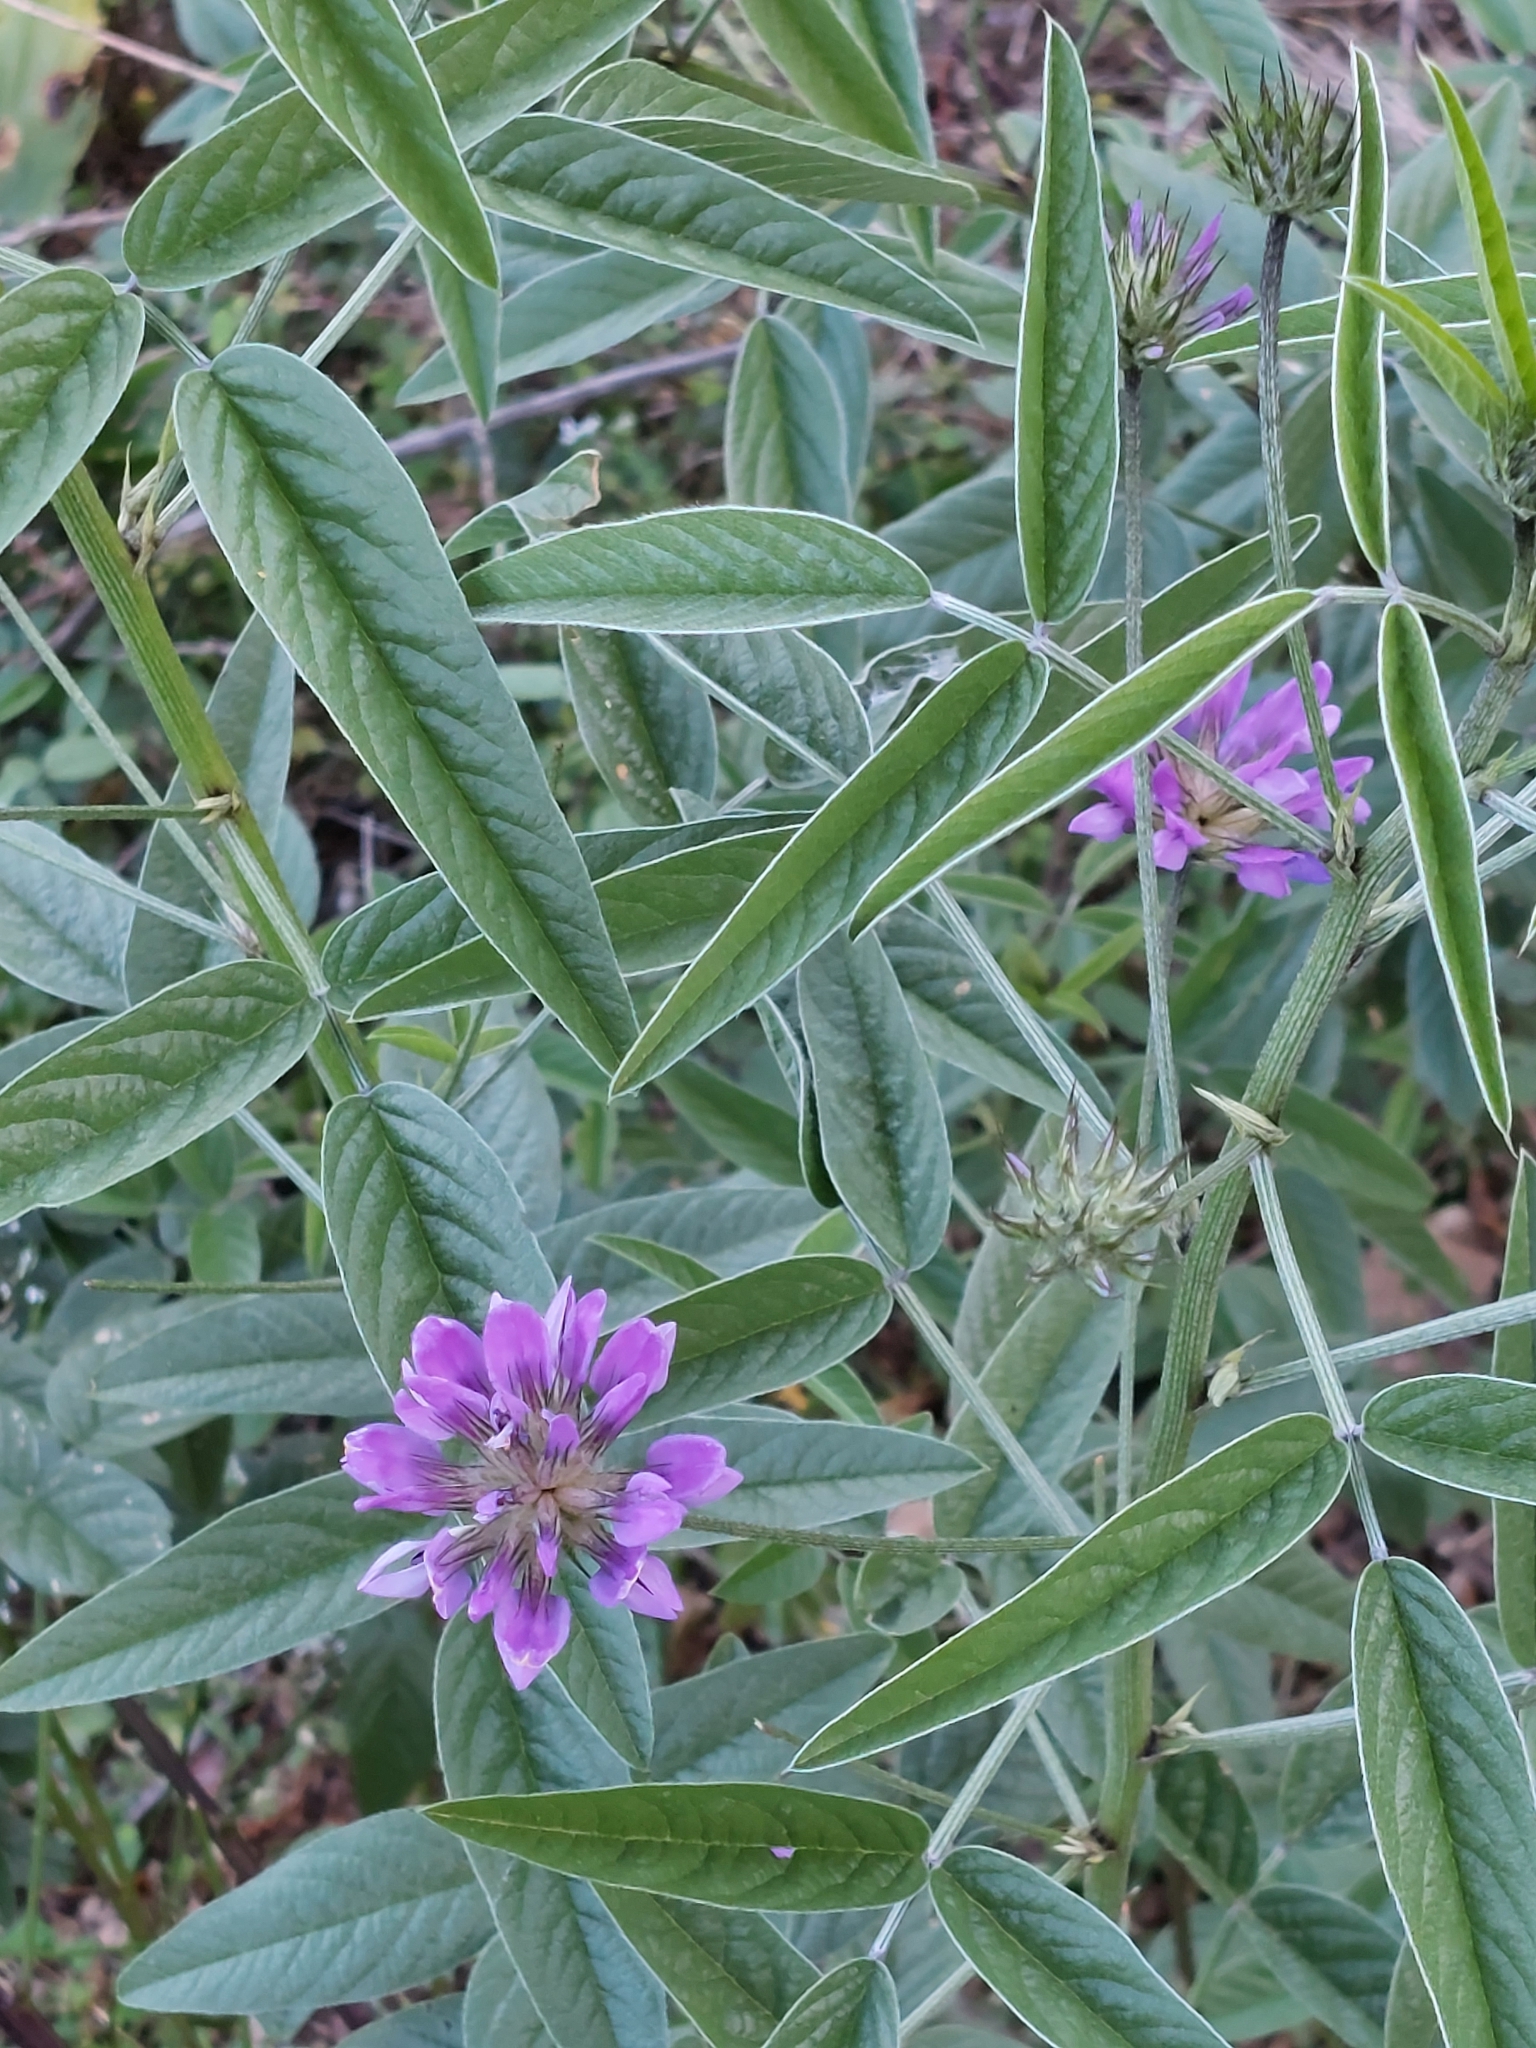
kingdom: Plantae
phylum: Tracheophyta
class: Magnoliopsida
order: Fabales
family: Fabaceae
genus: Bituminaria
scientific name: Bituminaria bituminosa
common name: Arabian pea
